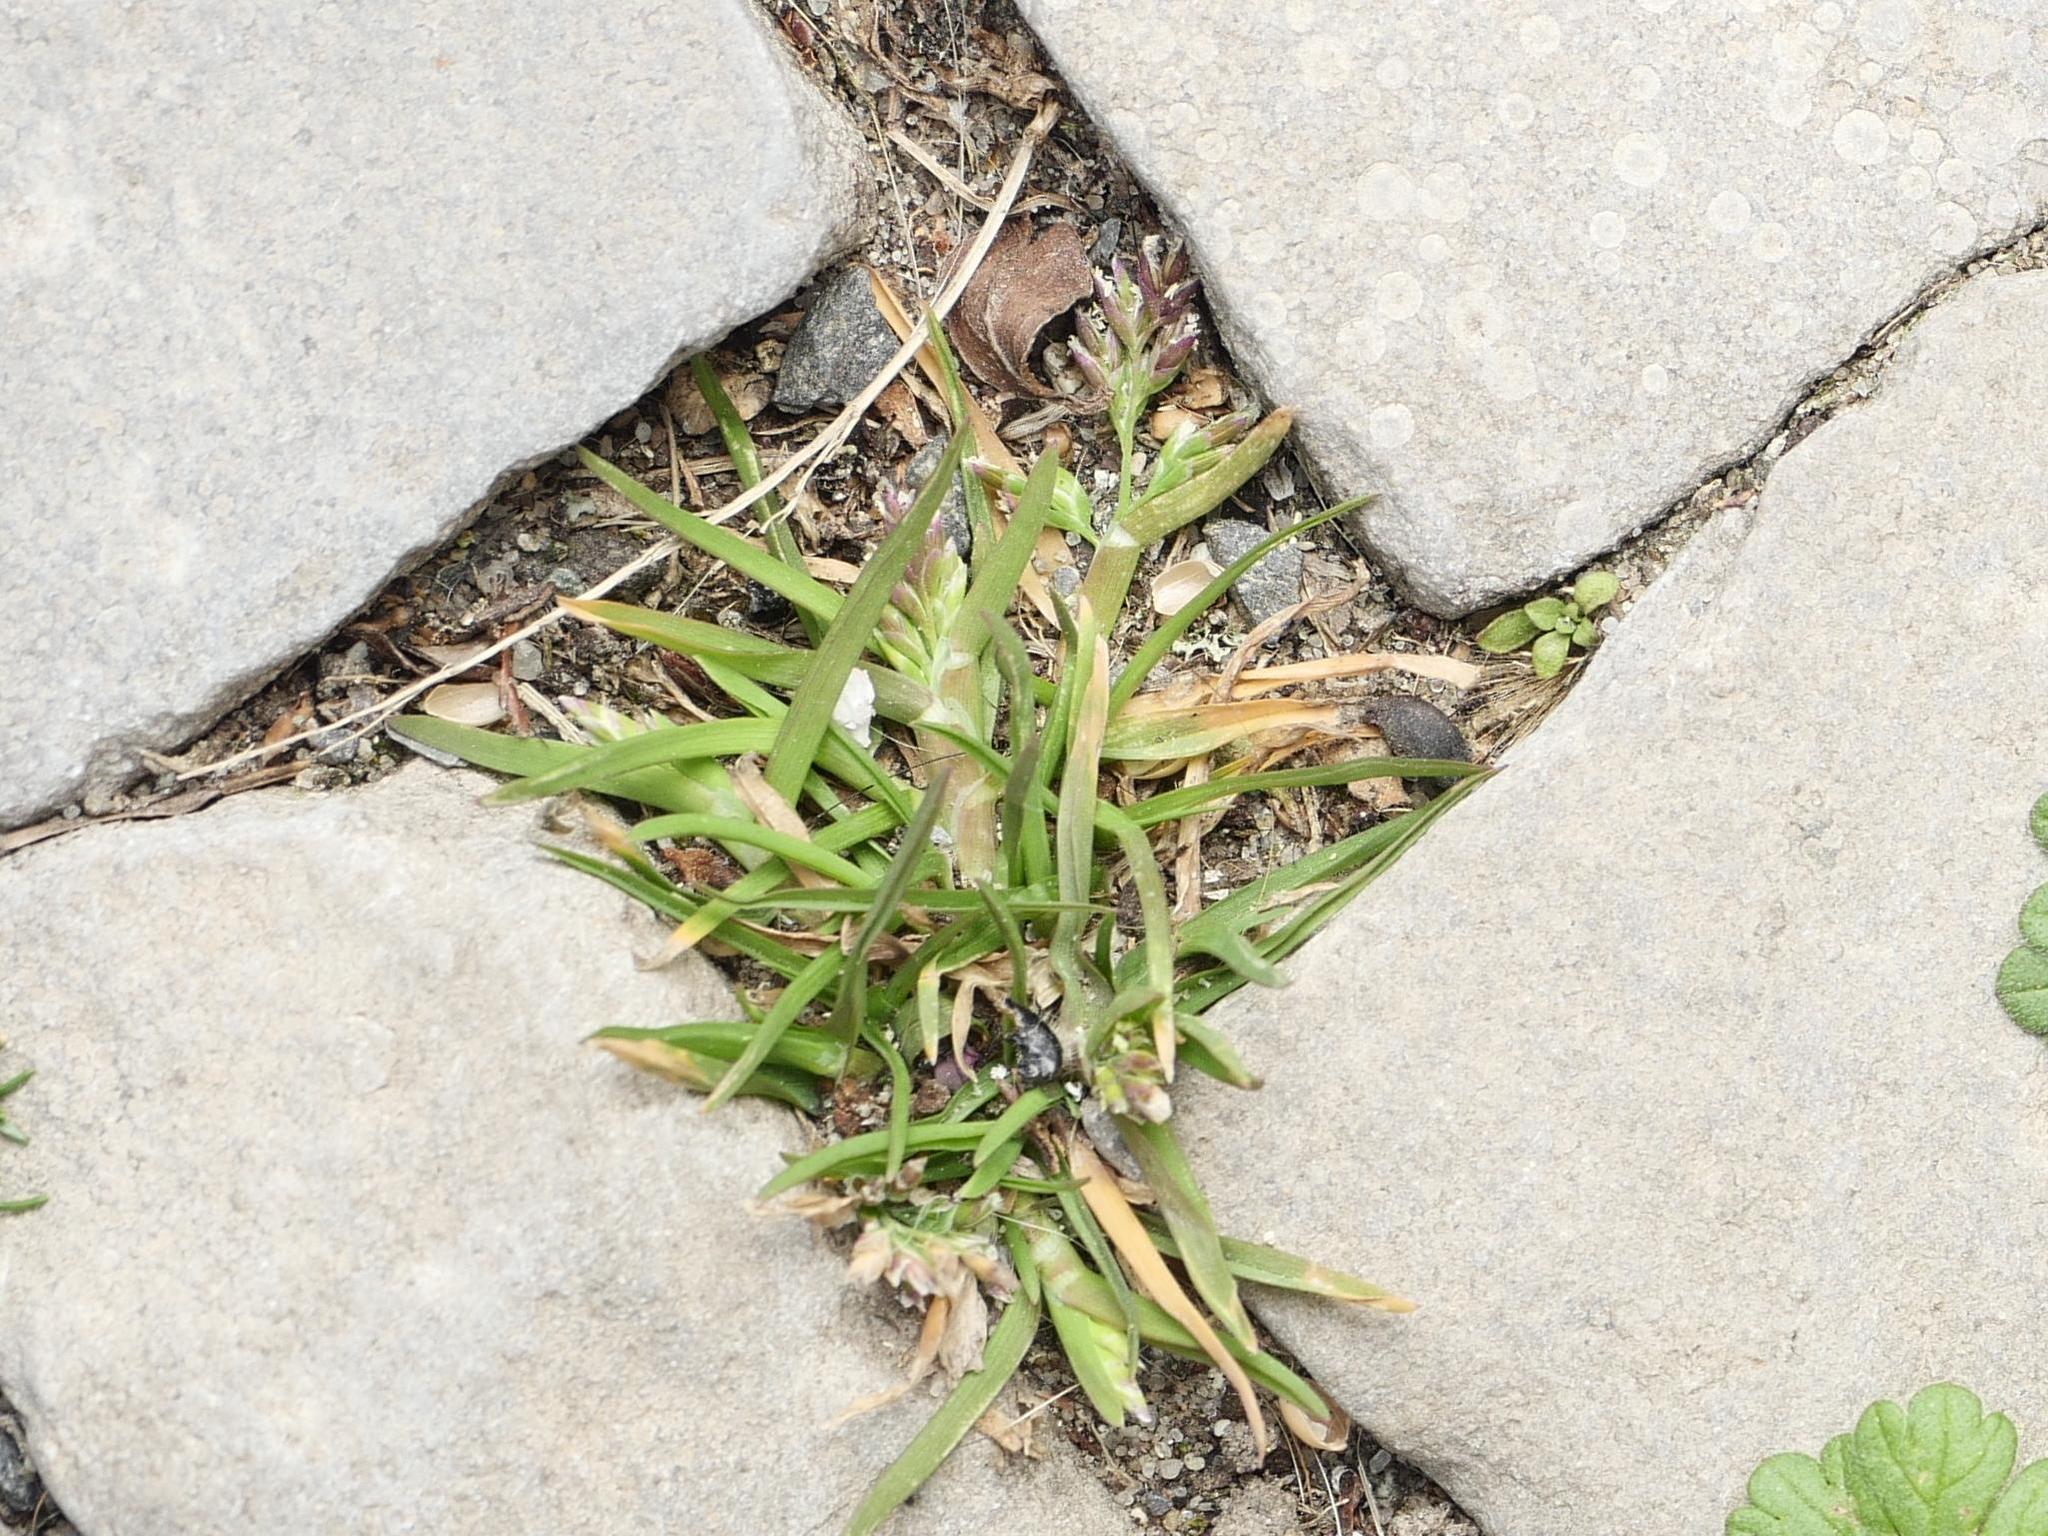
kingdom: Plantae
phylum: Tracheophyta
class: Liliopsida
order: Poales
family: Poaceae
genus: Poa
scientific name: Poa annua
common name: Annual bluegrass
